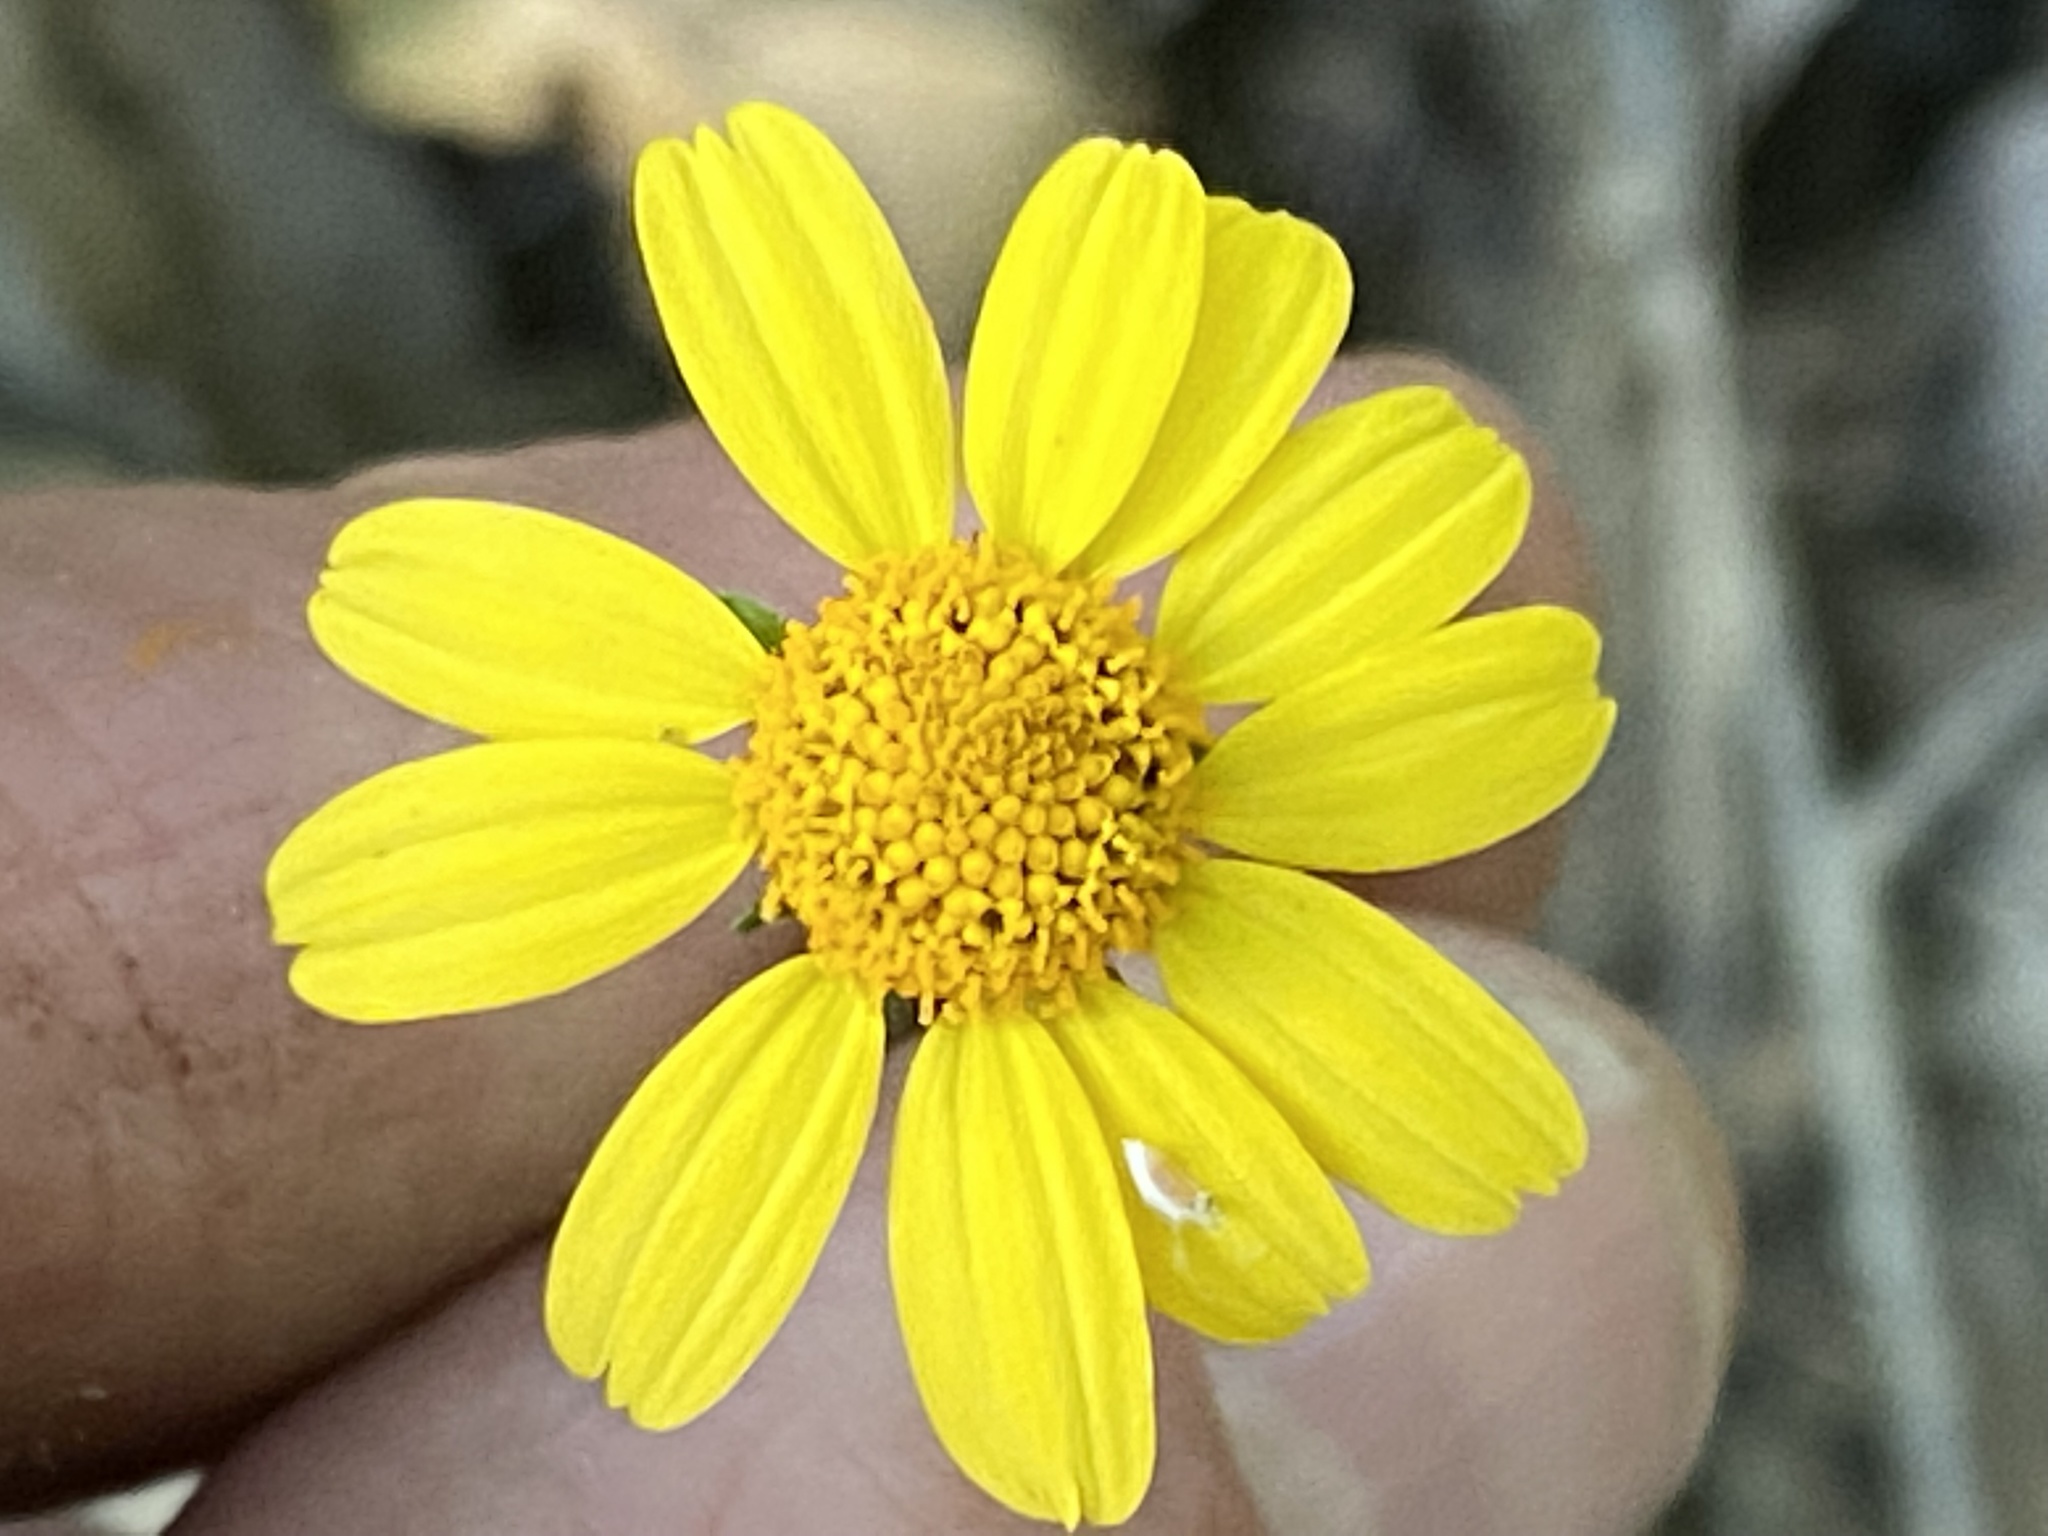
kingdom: Plantae
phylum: Tracheophyta
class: Magnoliopsida
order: Asterales
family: Asteraceae
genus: Acmella
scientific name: Acmella repens
